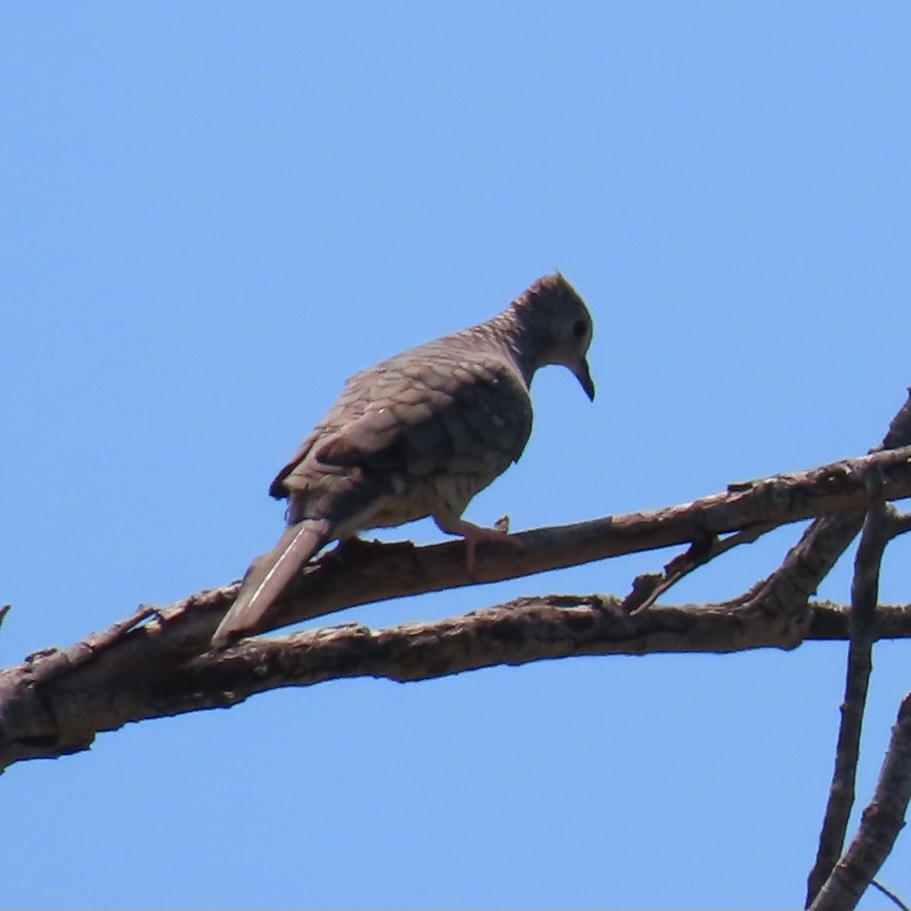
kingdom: Animalia
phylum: Chordata
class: Aves
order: Columbiformes
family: Columbidae
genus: Columbina
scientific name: Columbina inca
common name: Inca dove
